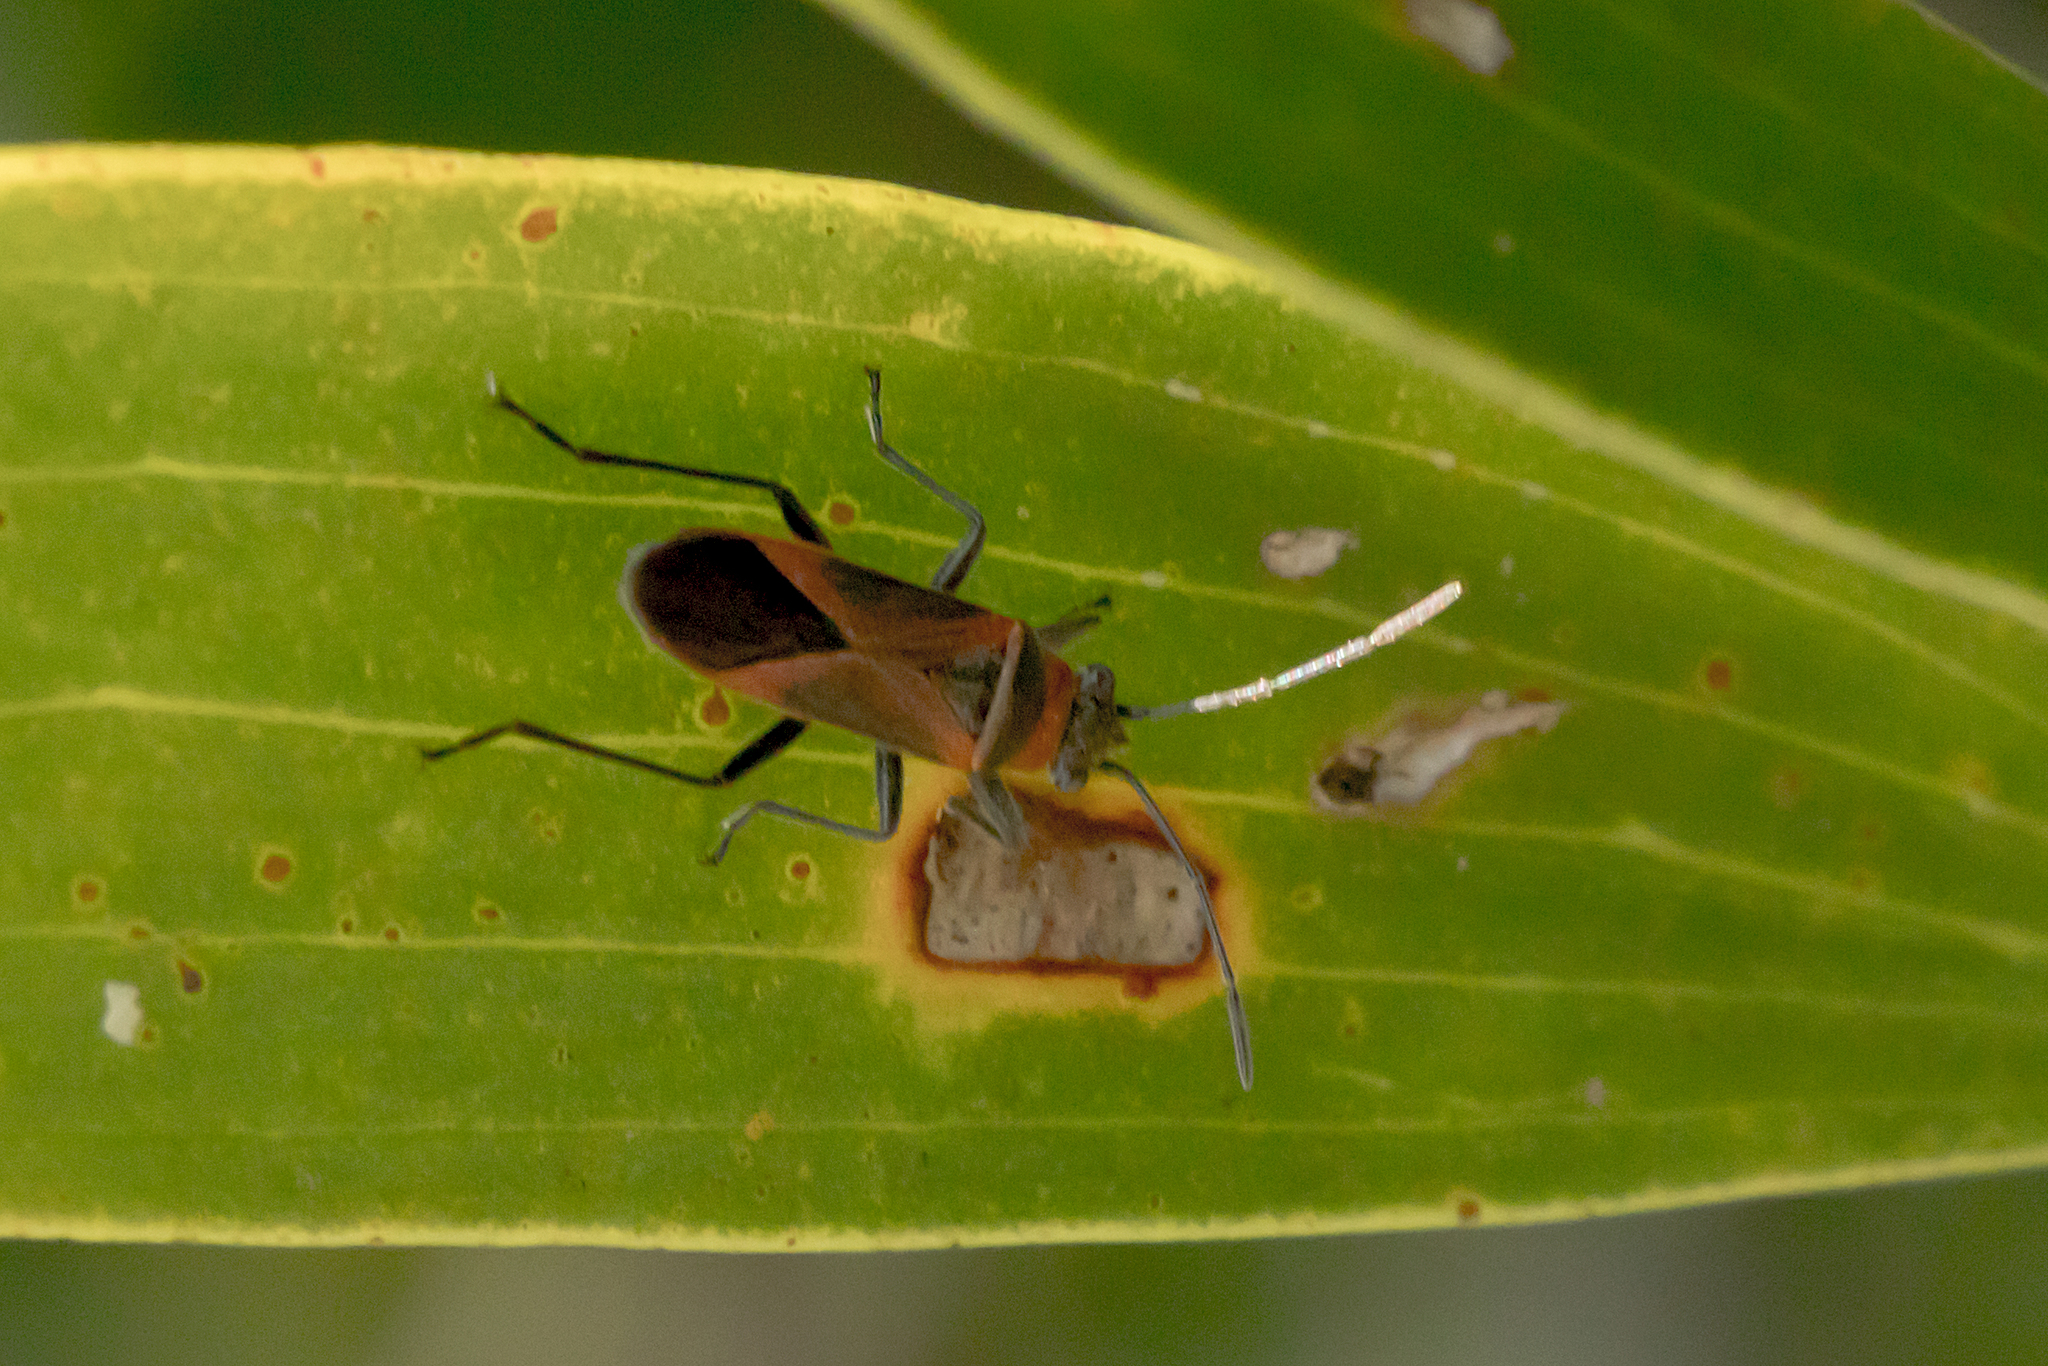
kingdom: Animalia
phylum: Arthropoda
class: Insecta
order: Hemiptera
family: Lygaeidae
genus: Arocatus
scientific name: Arocatus rusticus
